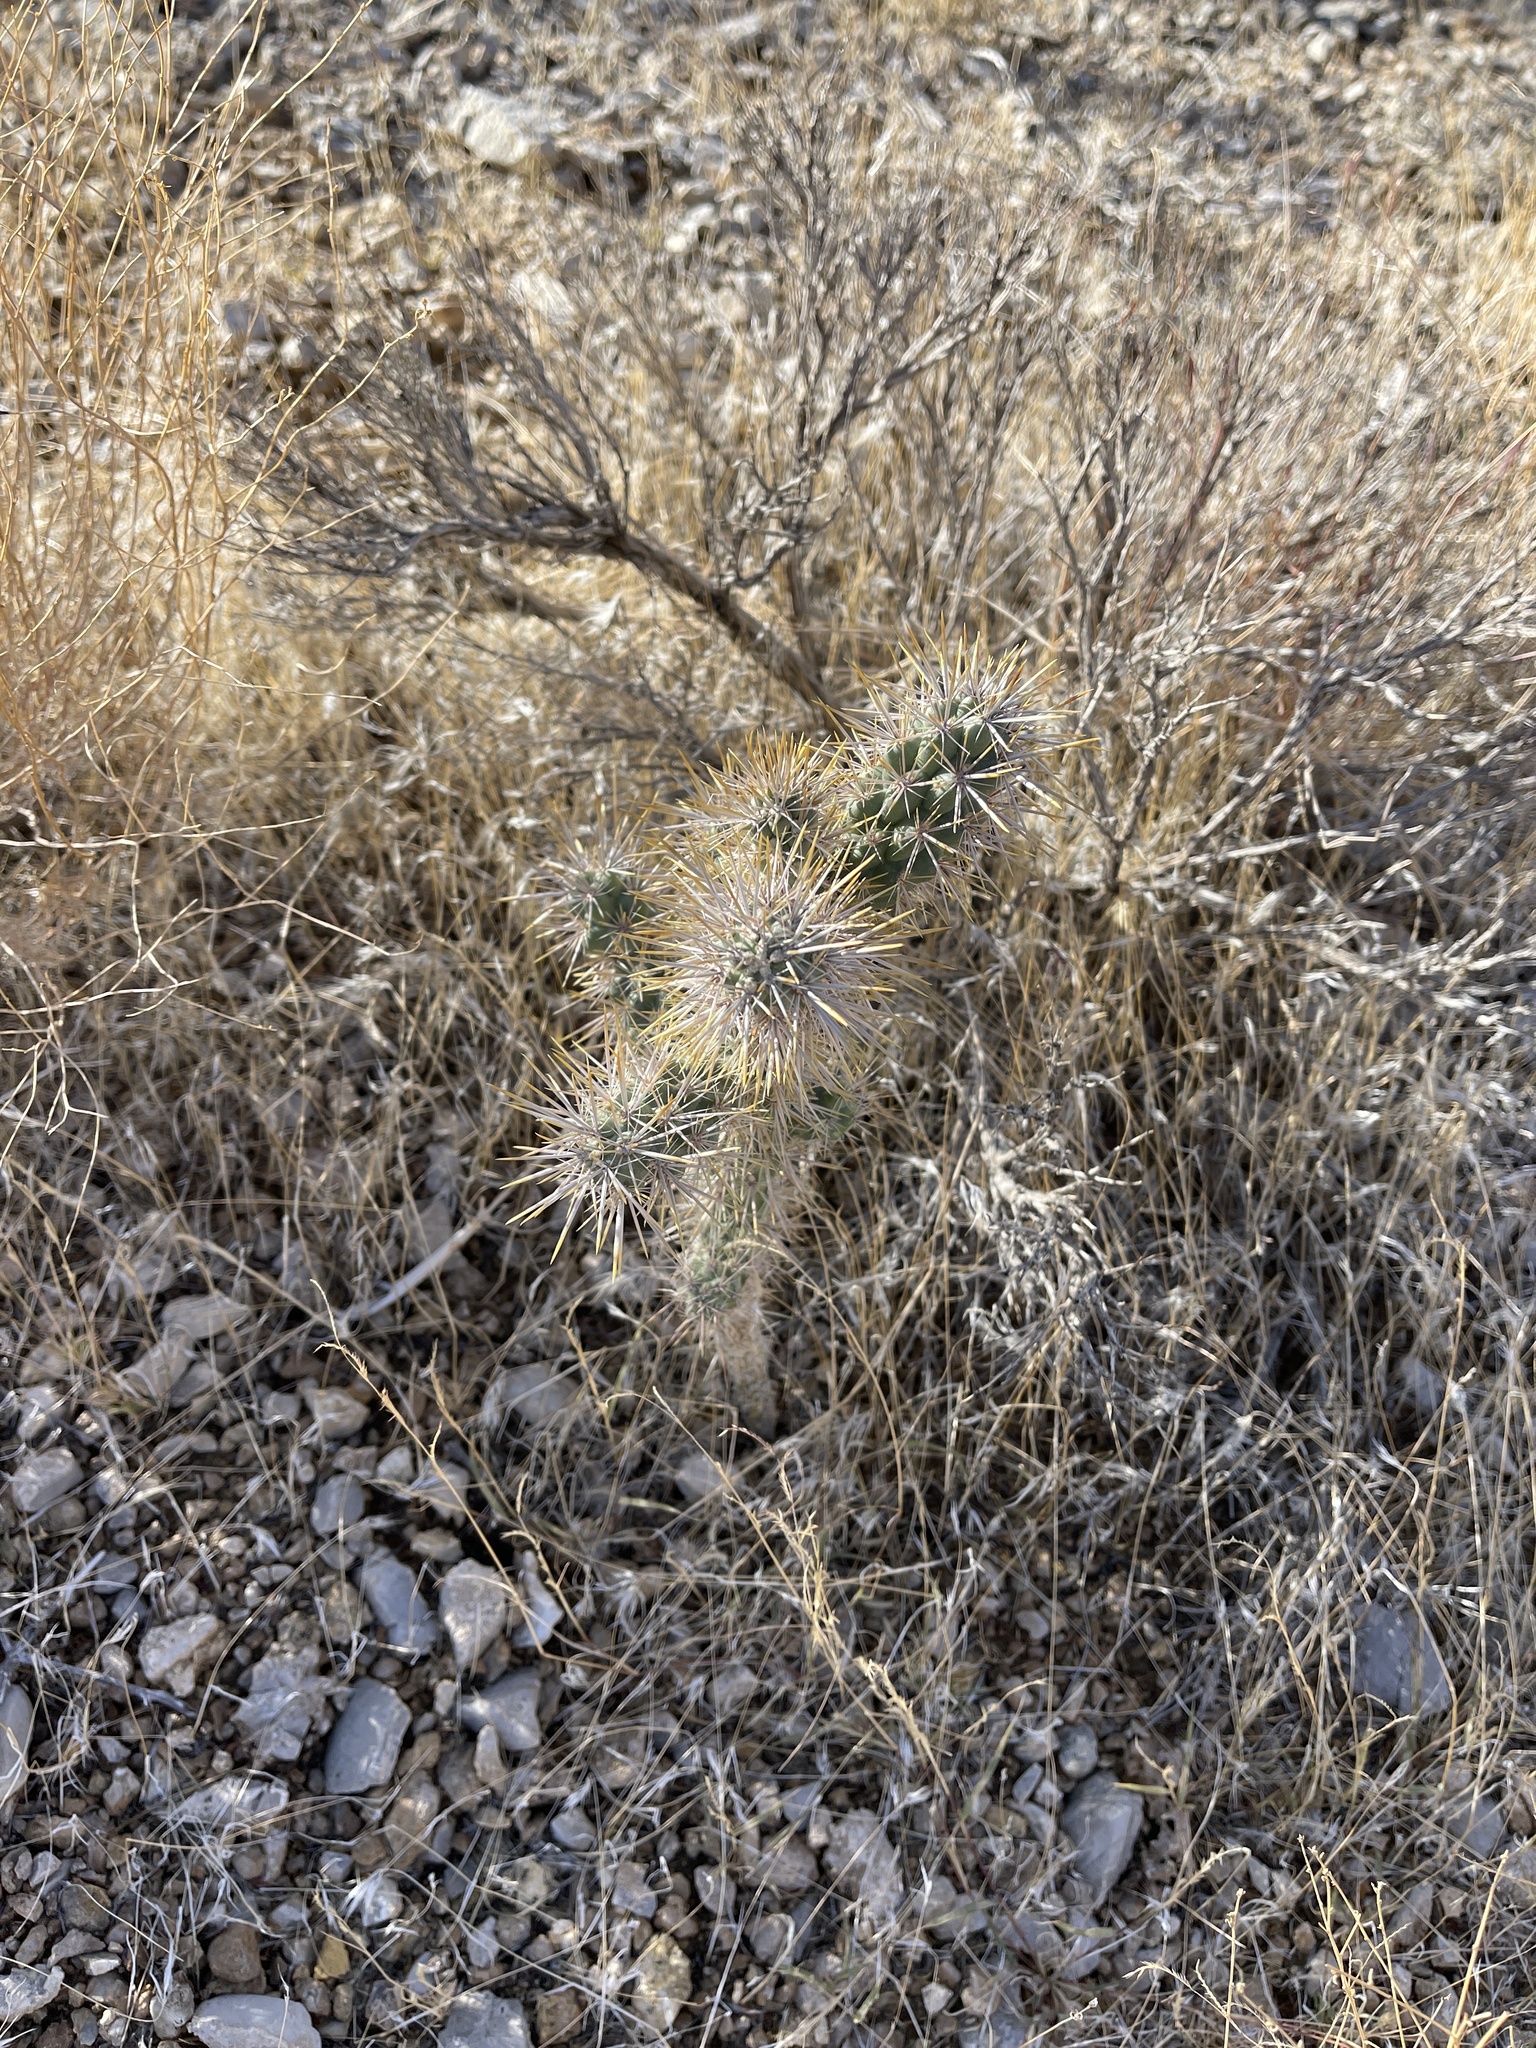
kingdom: Plantae
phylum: Tracheophyta
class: Magnoliopsida
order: Caryophyllales
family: Cactaceae
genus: Cylindropuntia
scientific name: Cylindropuntia echinocarpa
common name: Ground cholla
